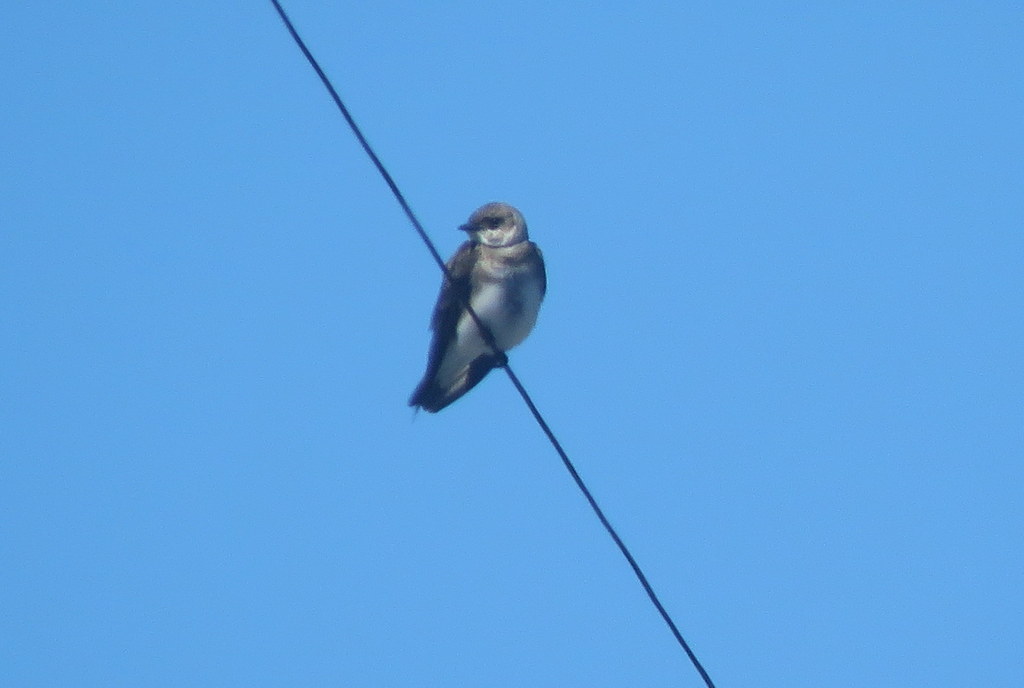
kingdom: Animalia
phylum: Chordata
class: Aves
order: Passeriformes
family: Hirundinidae
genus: Progne
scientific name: Progne tapera
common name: Brown-chested martin
